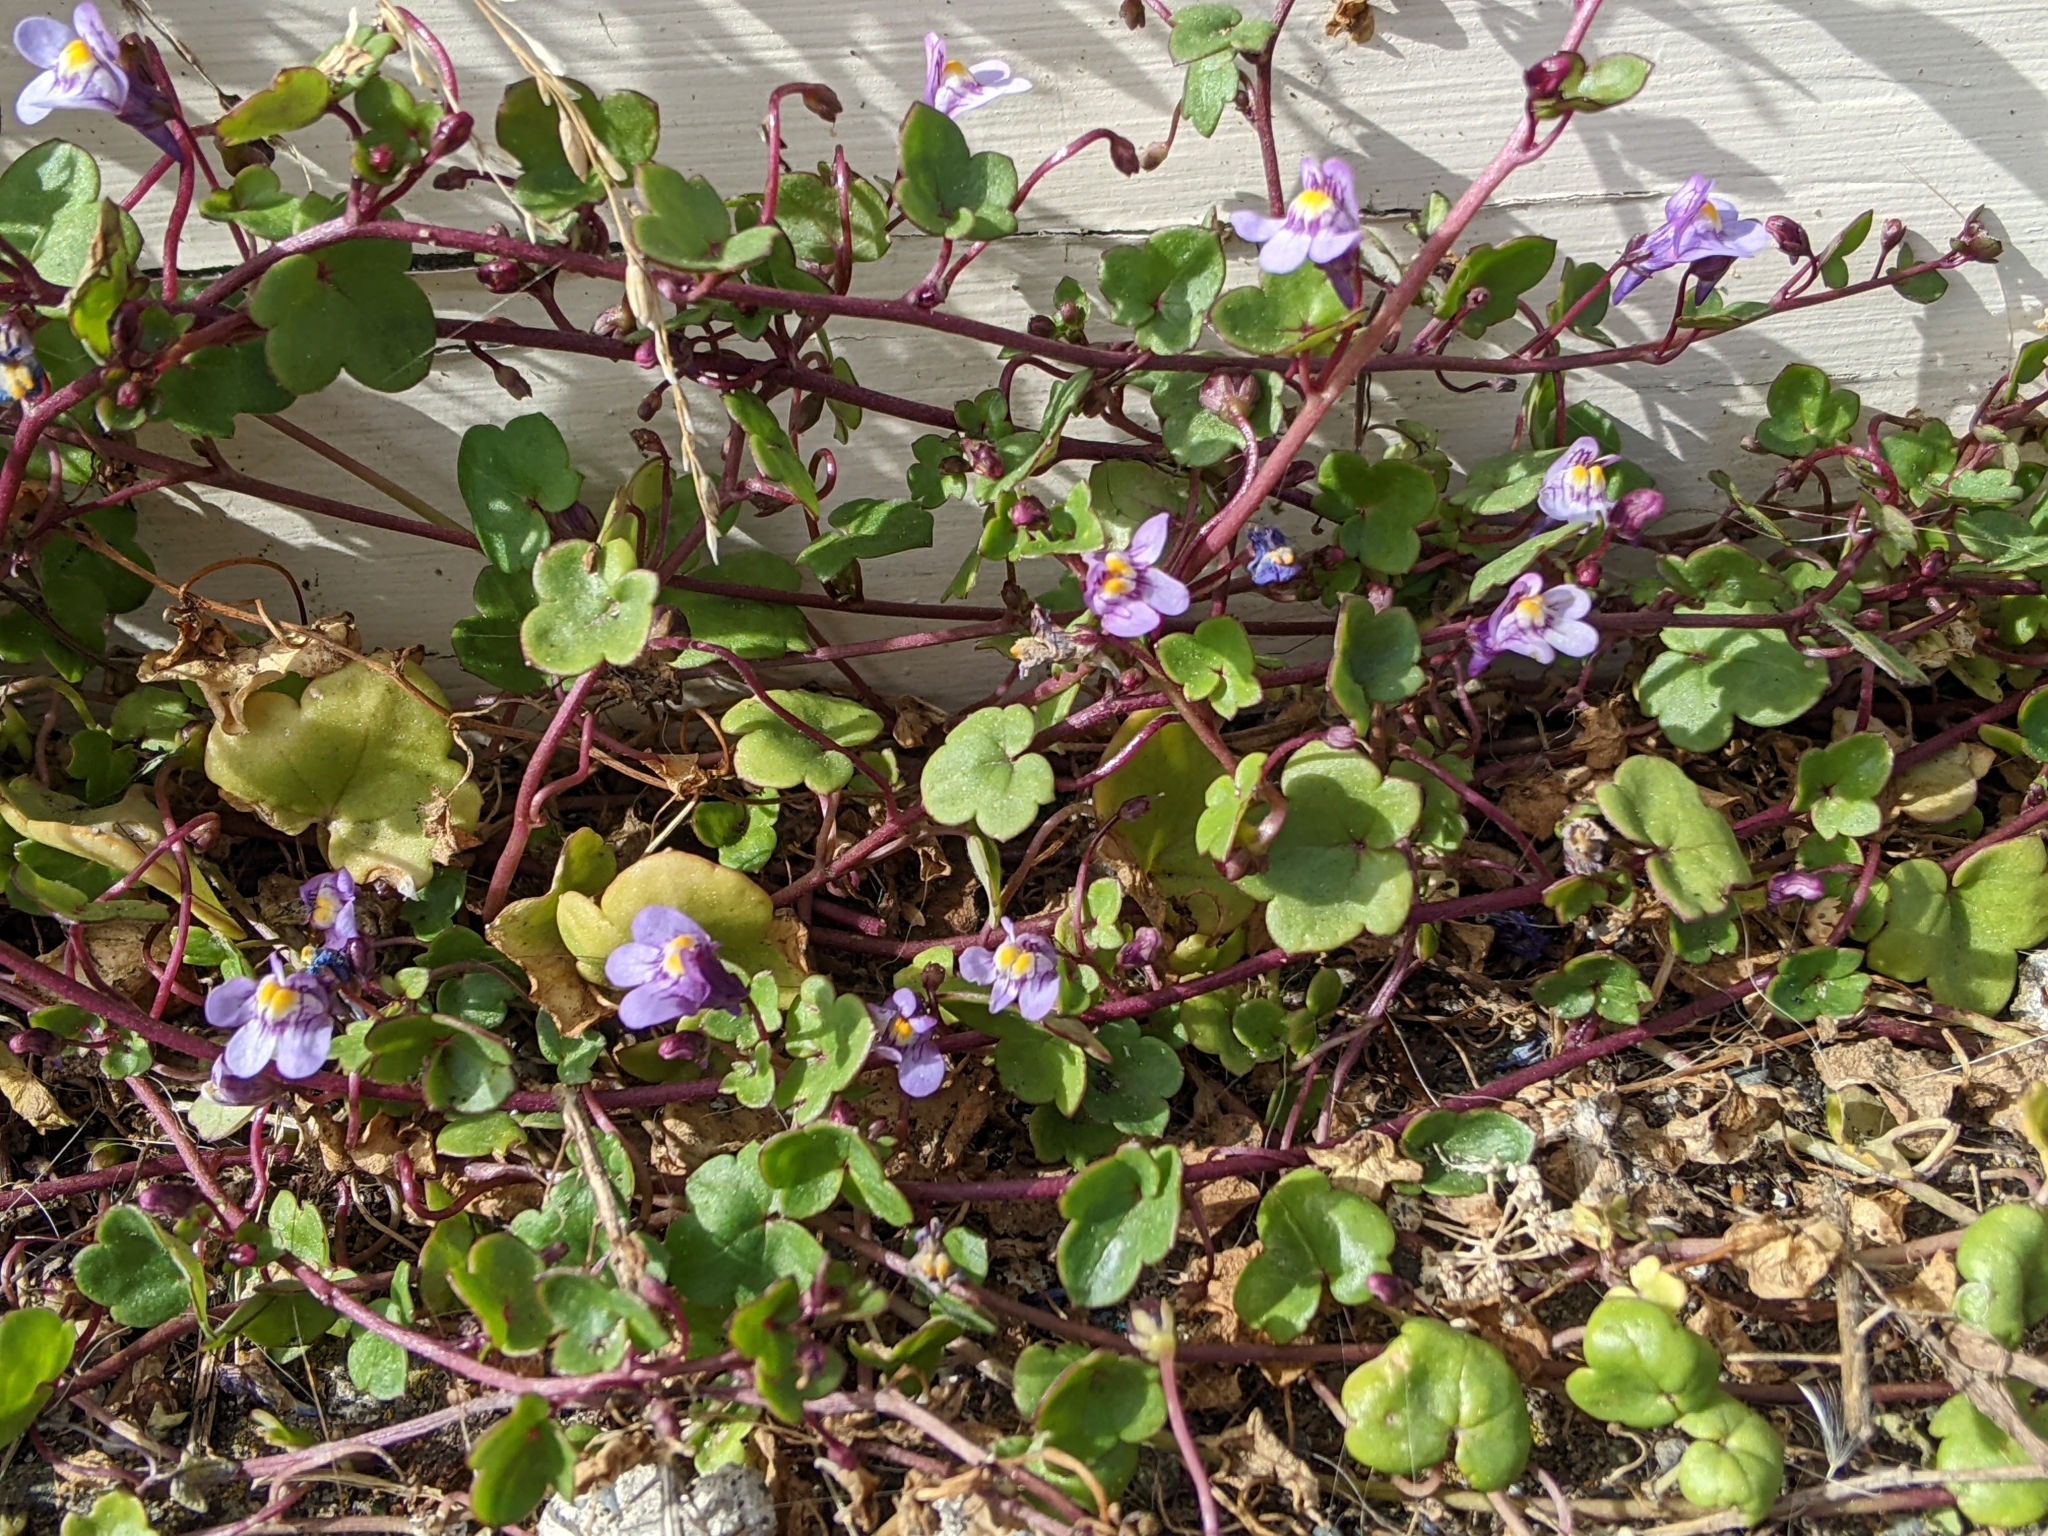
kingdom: Plantae
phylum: Tracheophyta
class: Magnoliopsida
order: Lamiales
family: Plantaginaceae
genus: Cymbalaria
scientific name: Cymbalaria muralis
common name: Ivy-leaved toadflax
